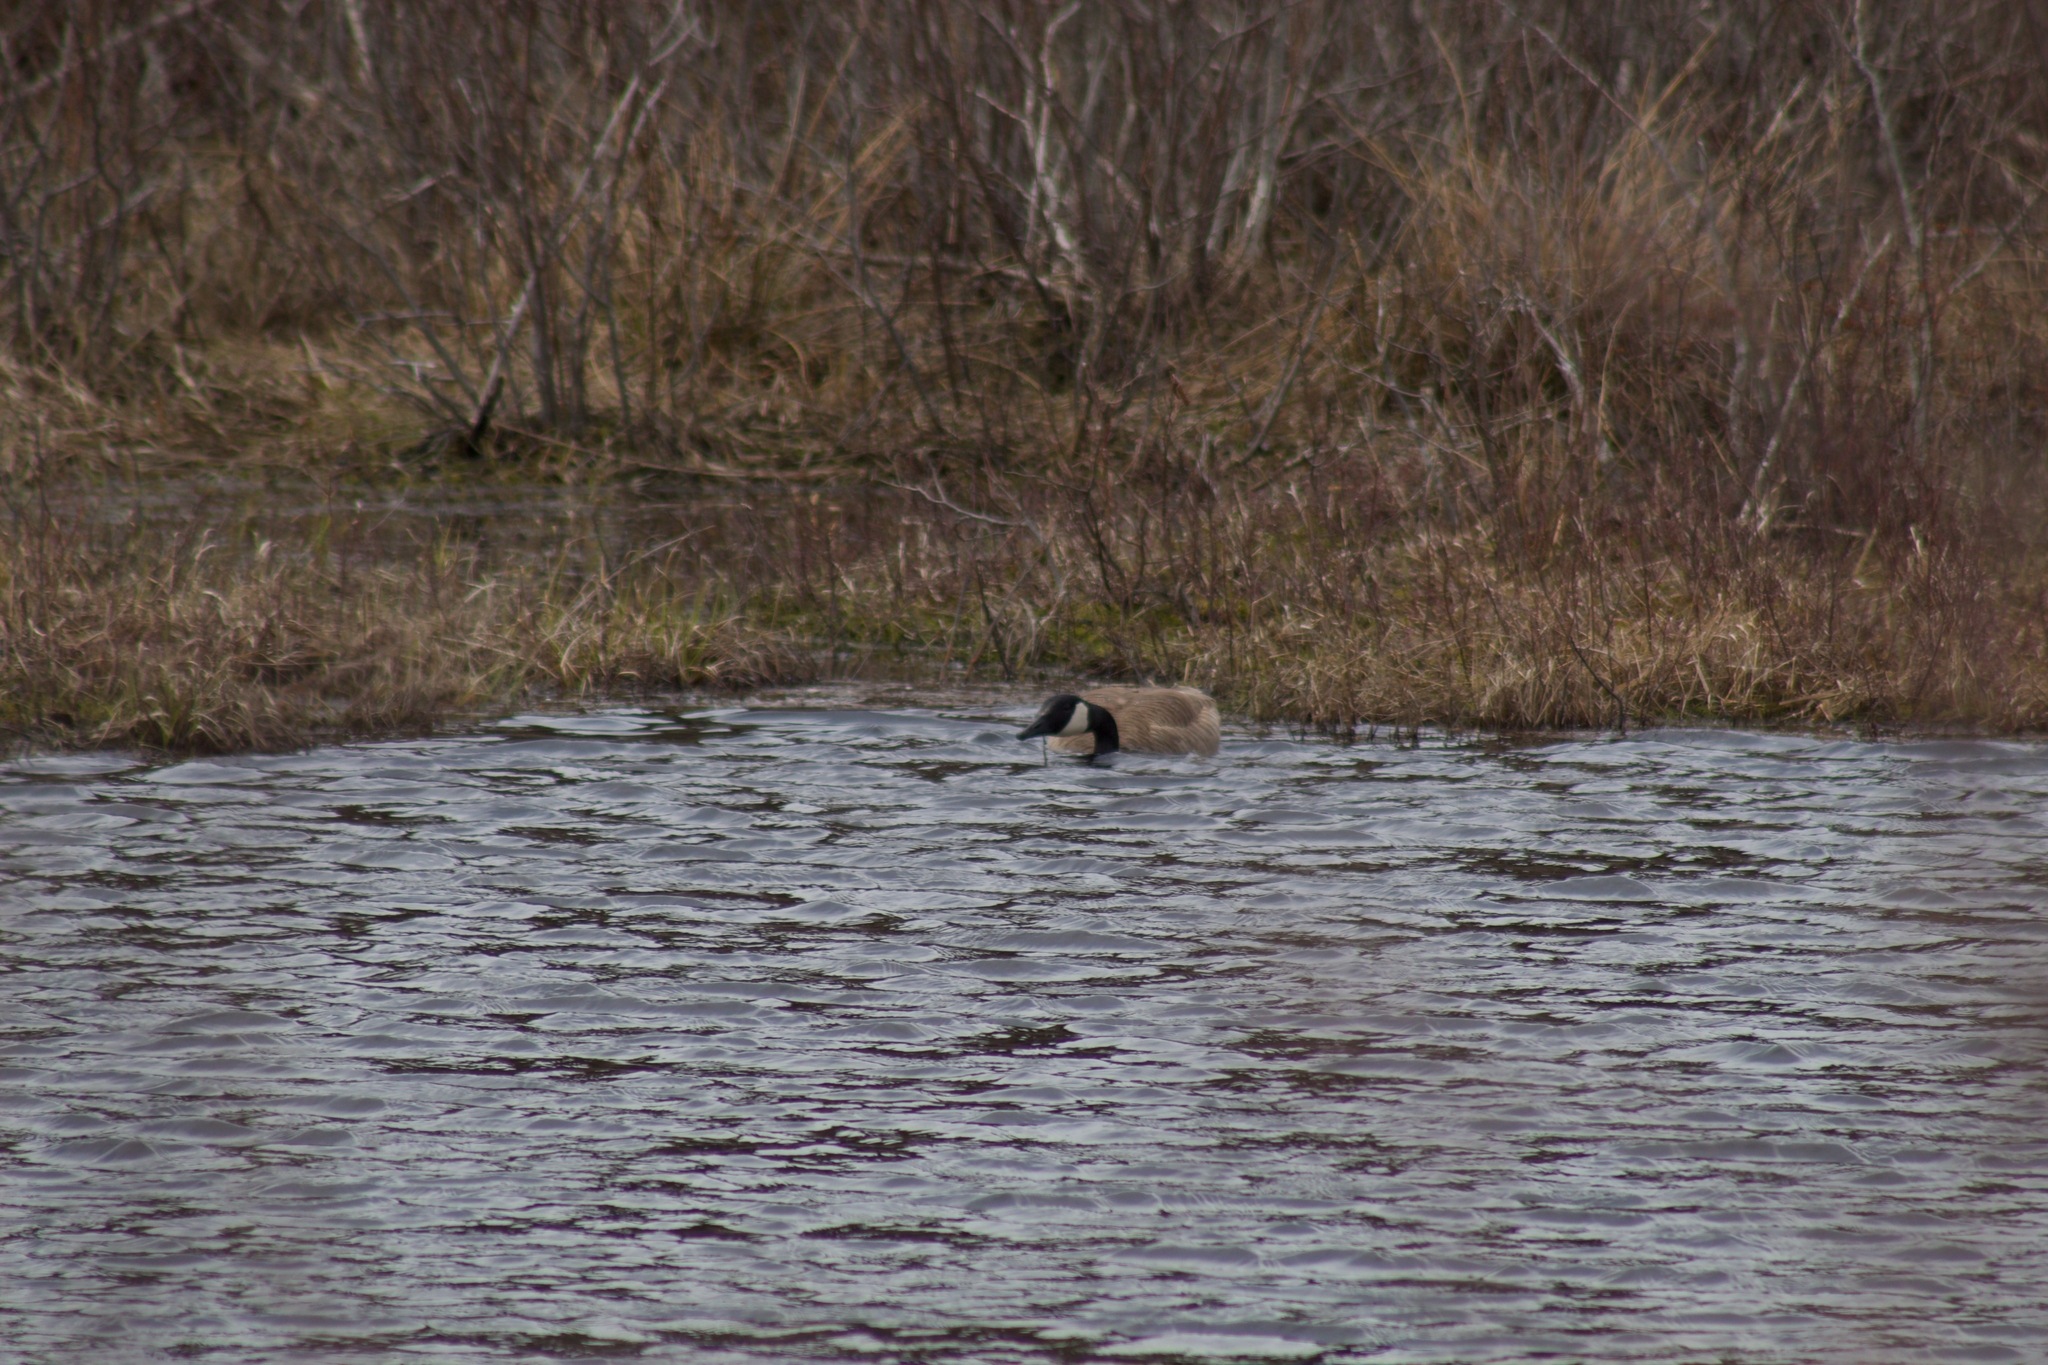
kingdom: Animalia
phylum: Chordata
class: Aves
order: Anseriformes
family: Anatidae
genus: Branta
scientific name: Branta canadensis
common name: Canada goose
